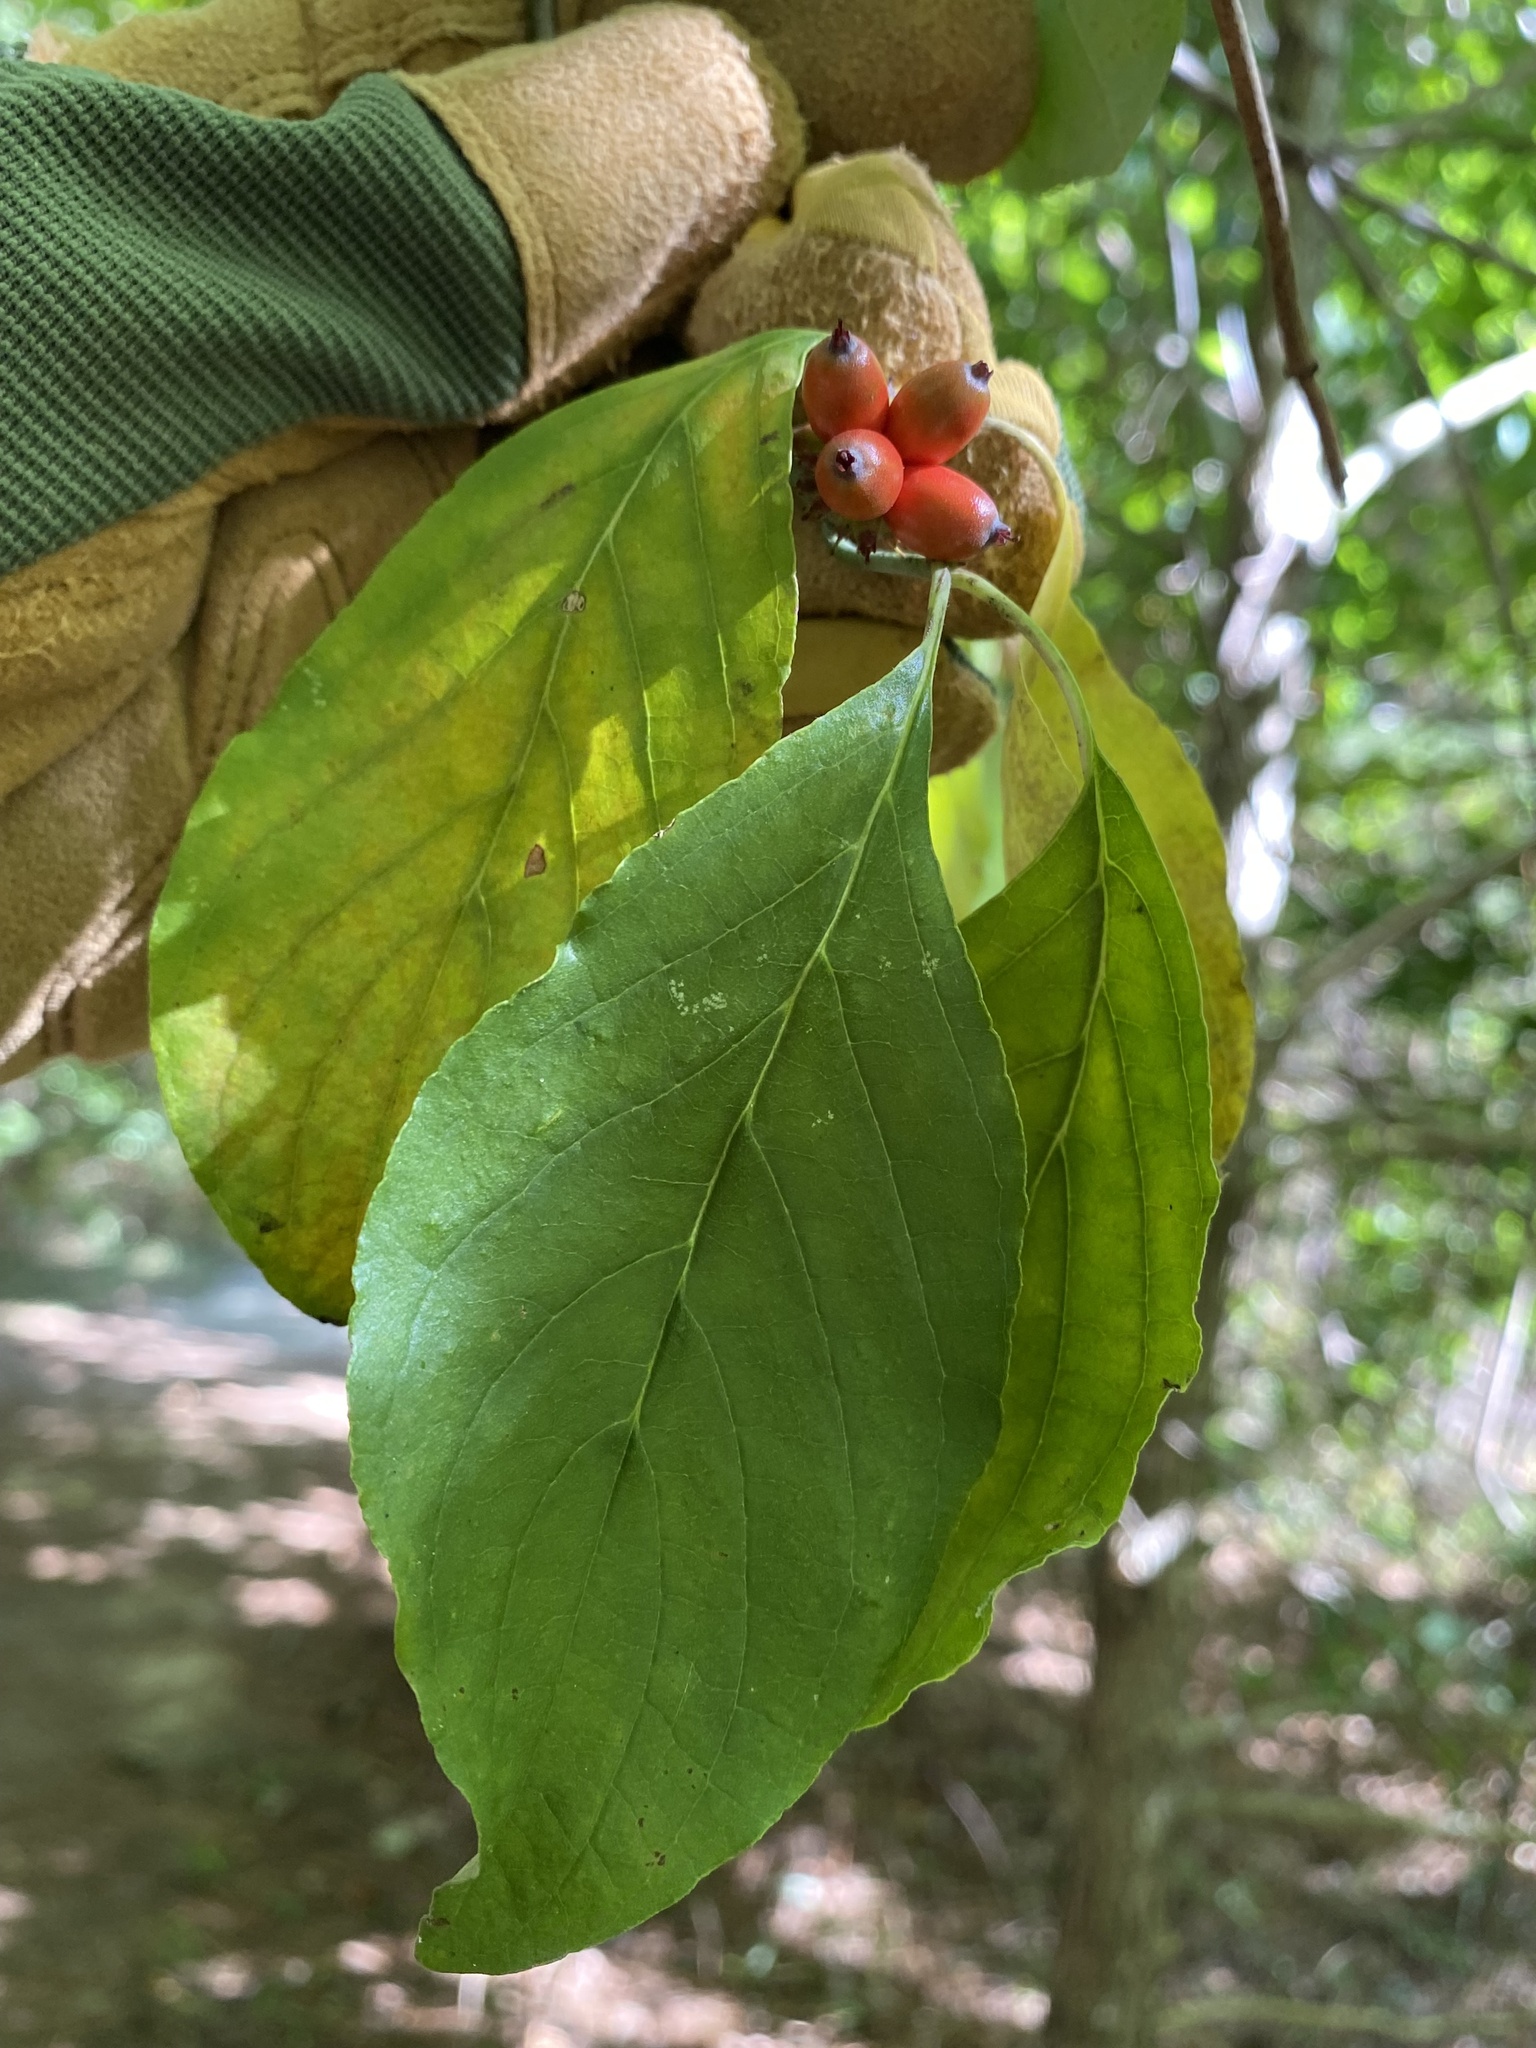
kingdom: Plantae
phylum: Tracheophyta
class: Magnoliopsida
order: Cornales
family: Cornaceae
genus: Cornus
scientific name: Cornus florida
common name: Flowering dogwood
